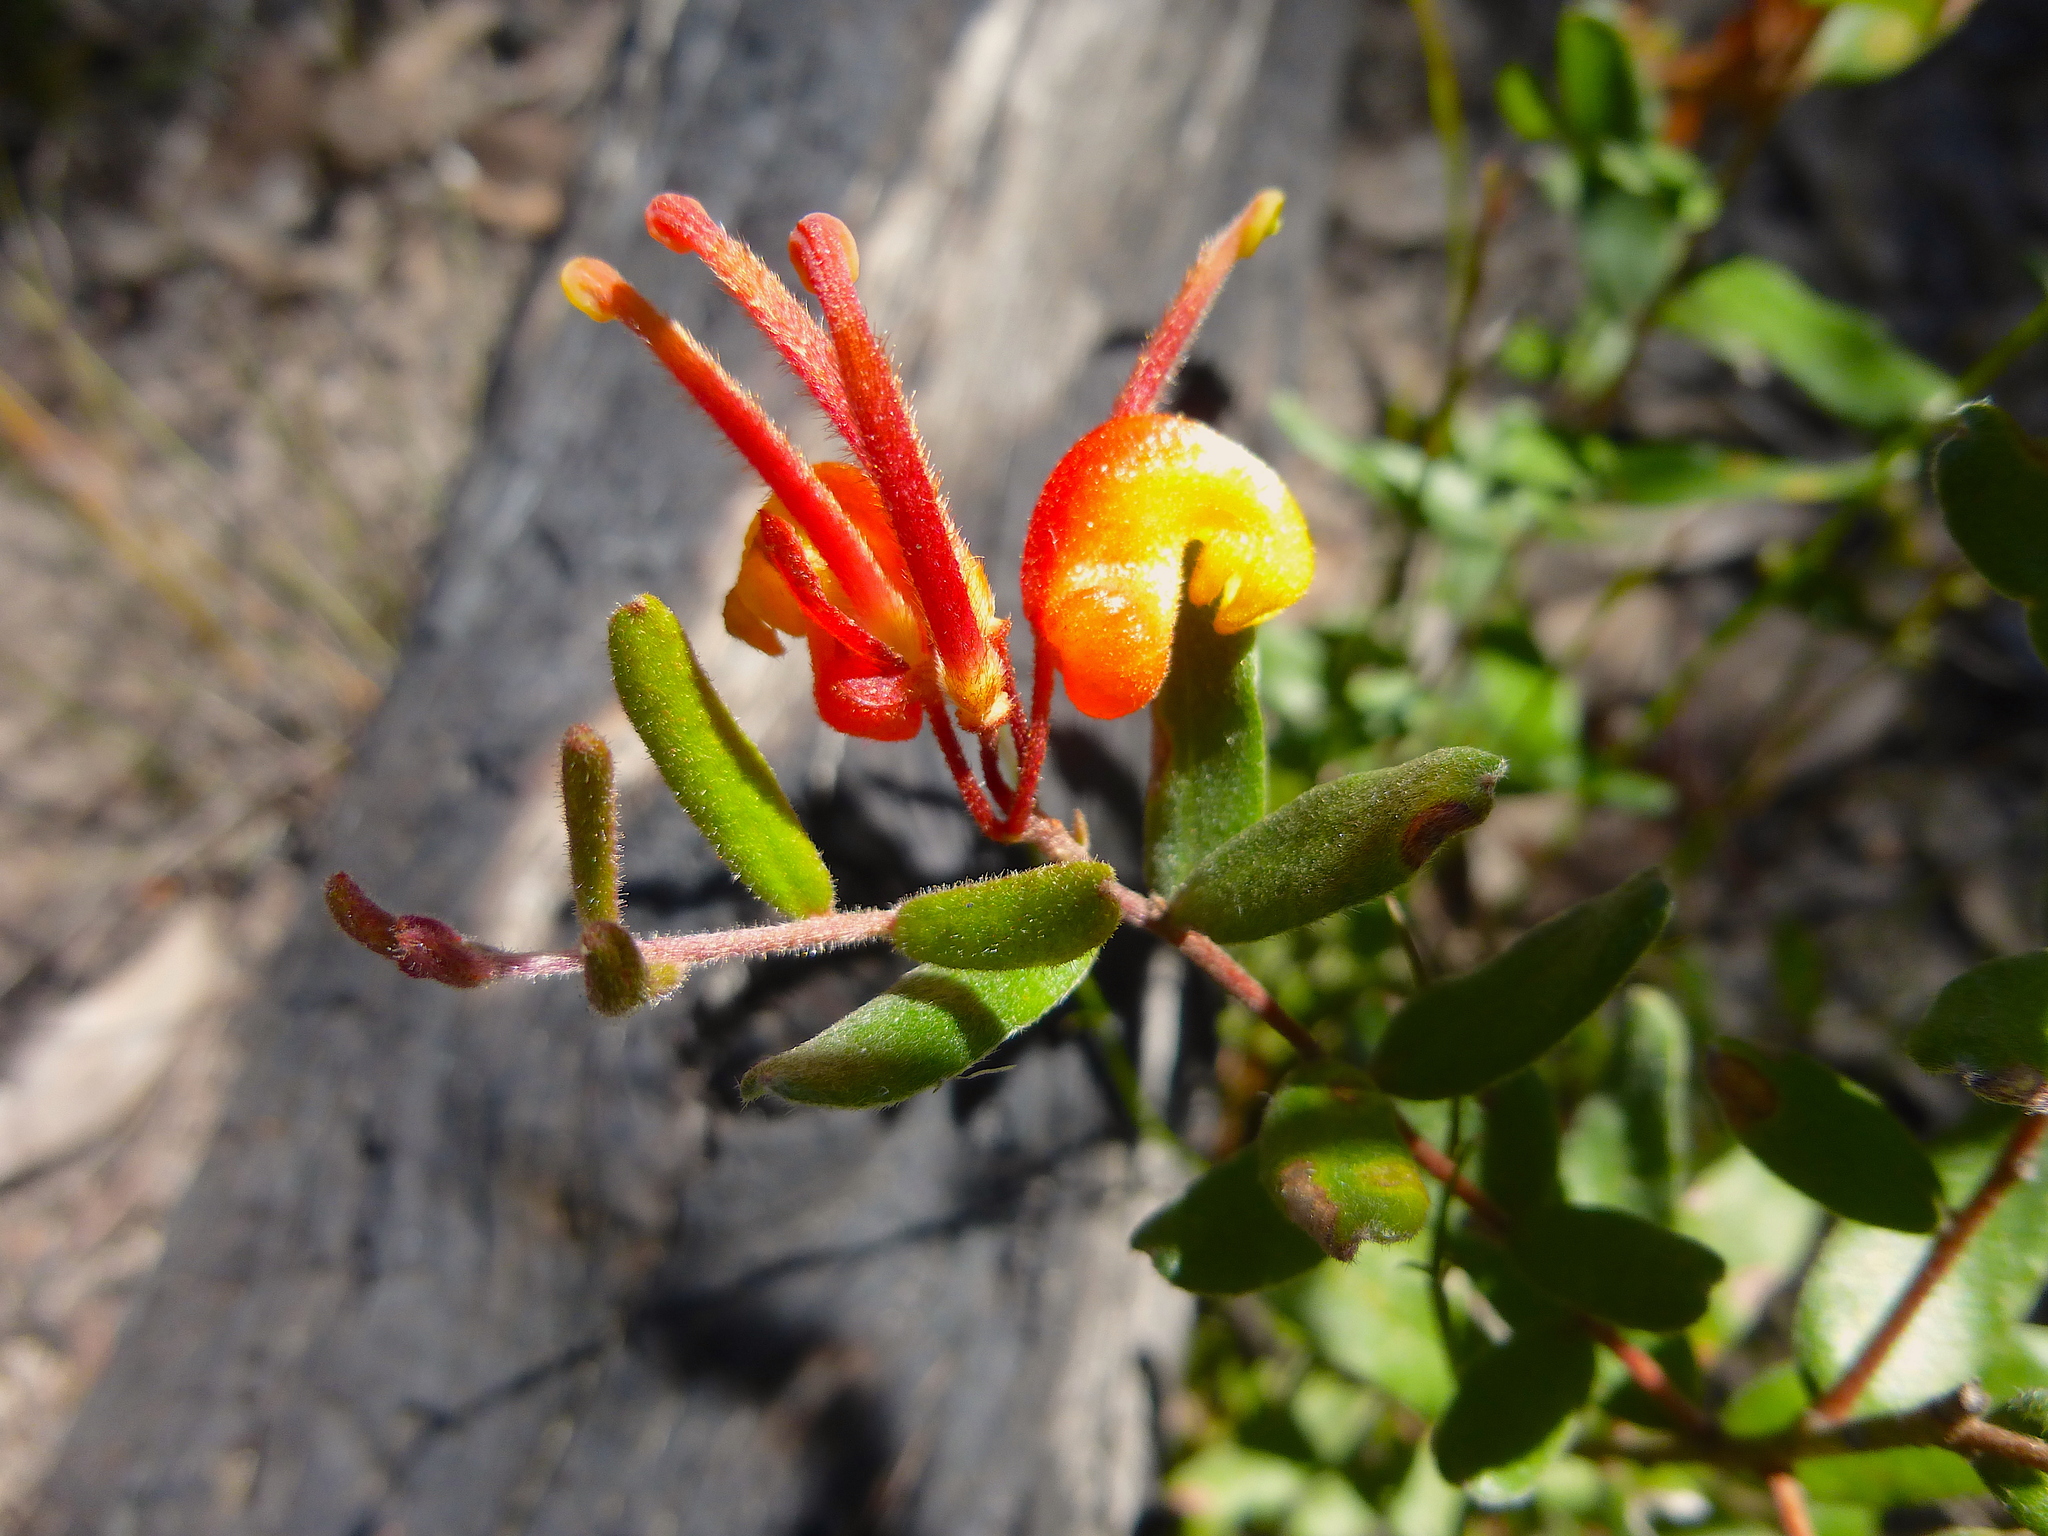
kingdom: Plantae
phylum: Tracheophyta
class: Magnoliopsida
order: Proteales
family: Proteaceae
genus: Grevillea
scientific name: Grevillea alpina
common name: Catclaws grevillea
